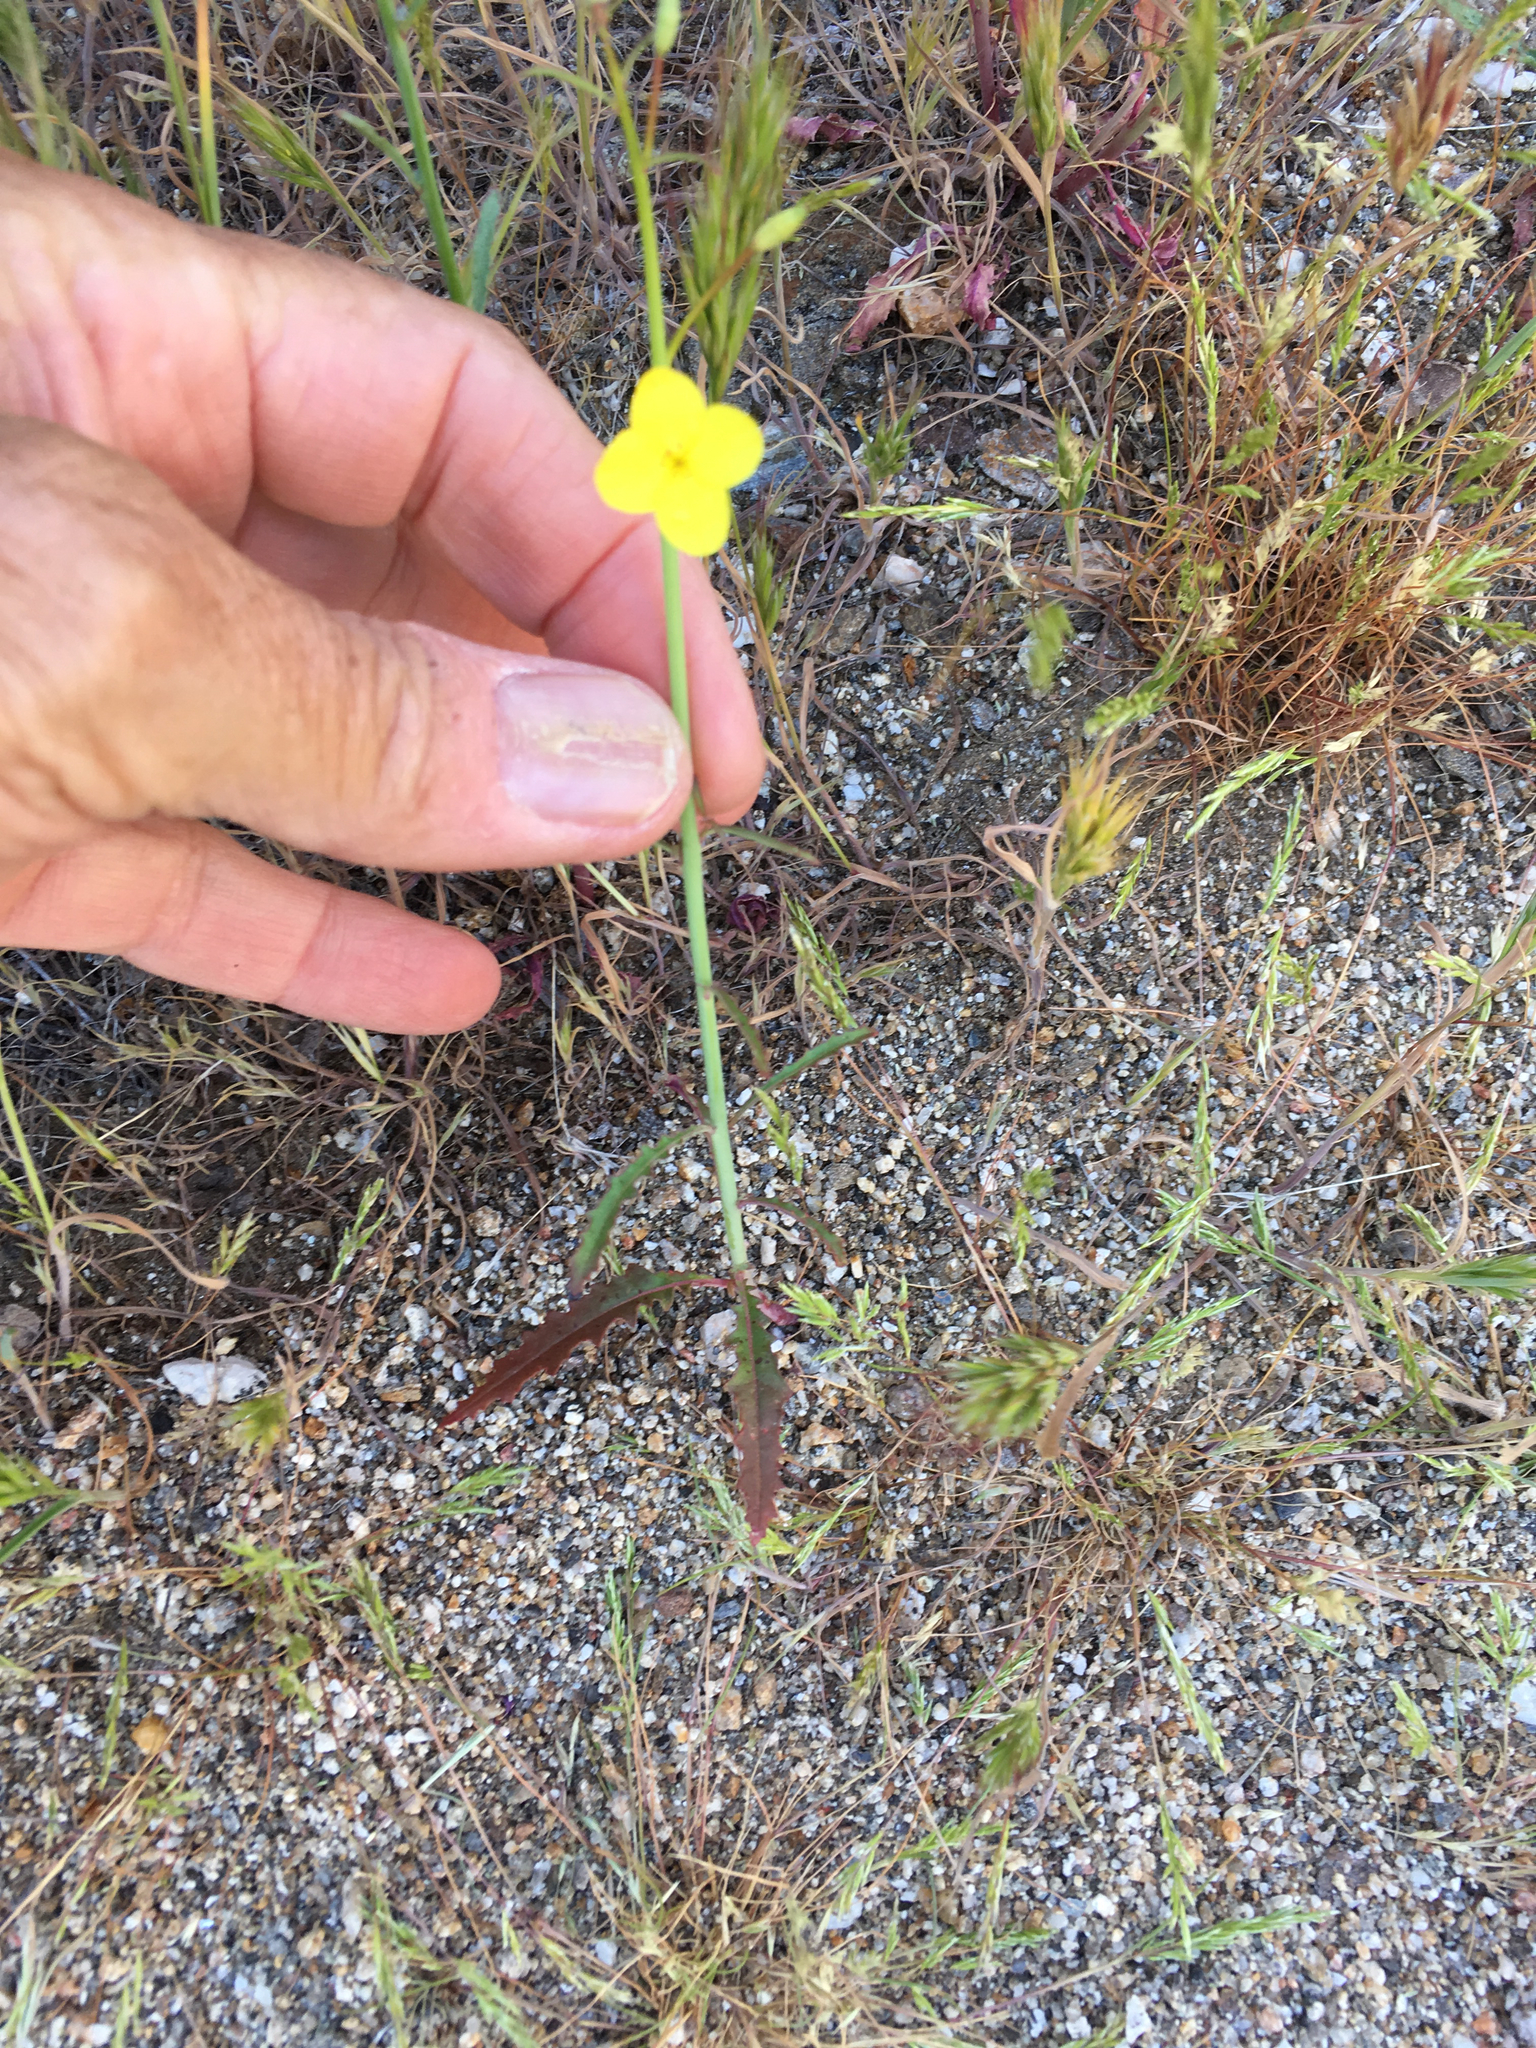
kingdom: Plantae
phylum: Tracheophyta
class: Magnoliopsida
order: Myrtales
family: Onagraceae
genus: Eulobus
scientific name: Eulobus californicus
